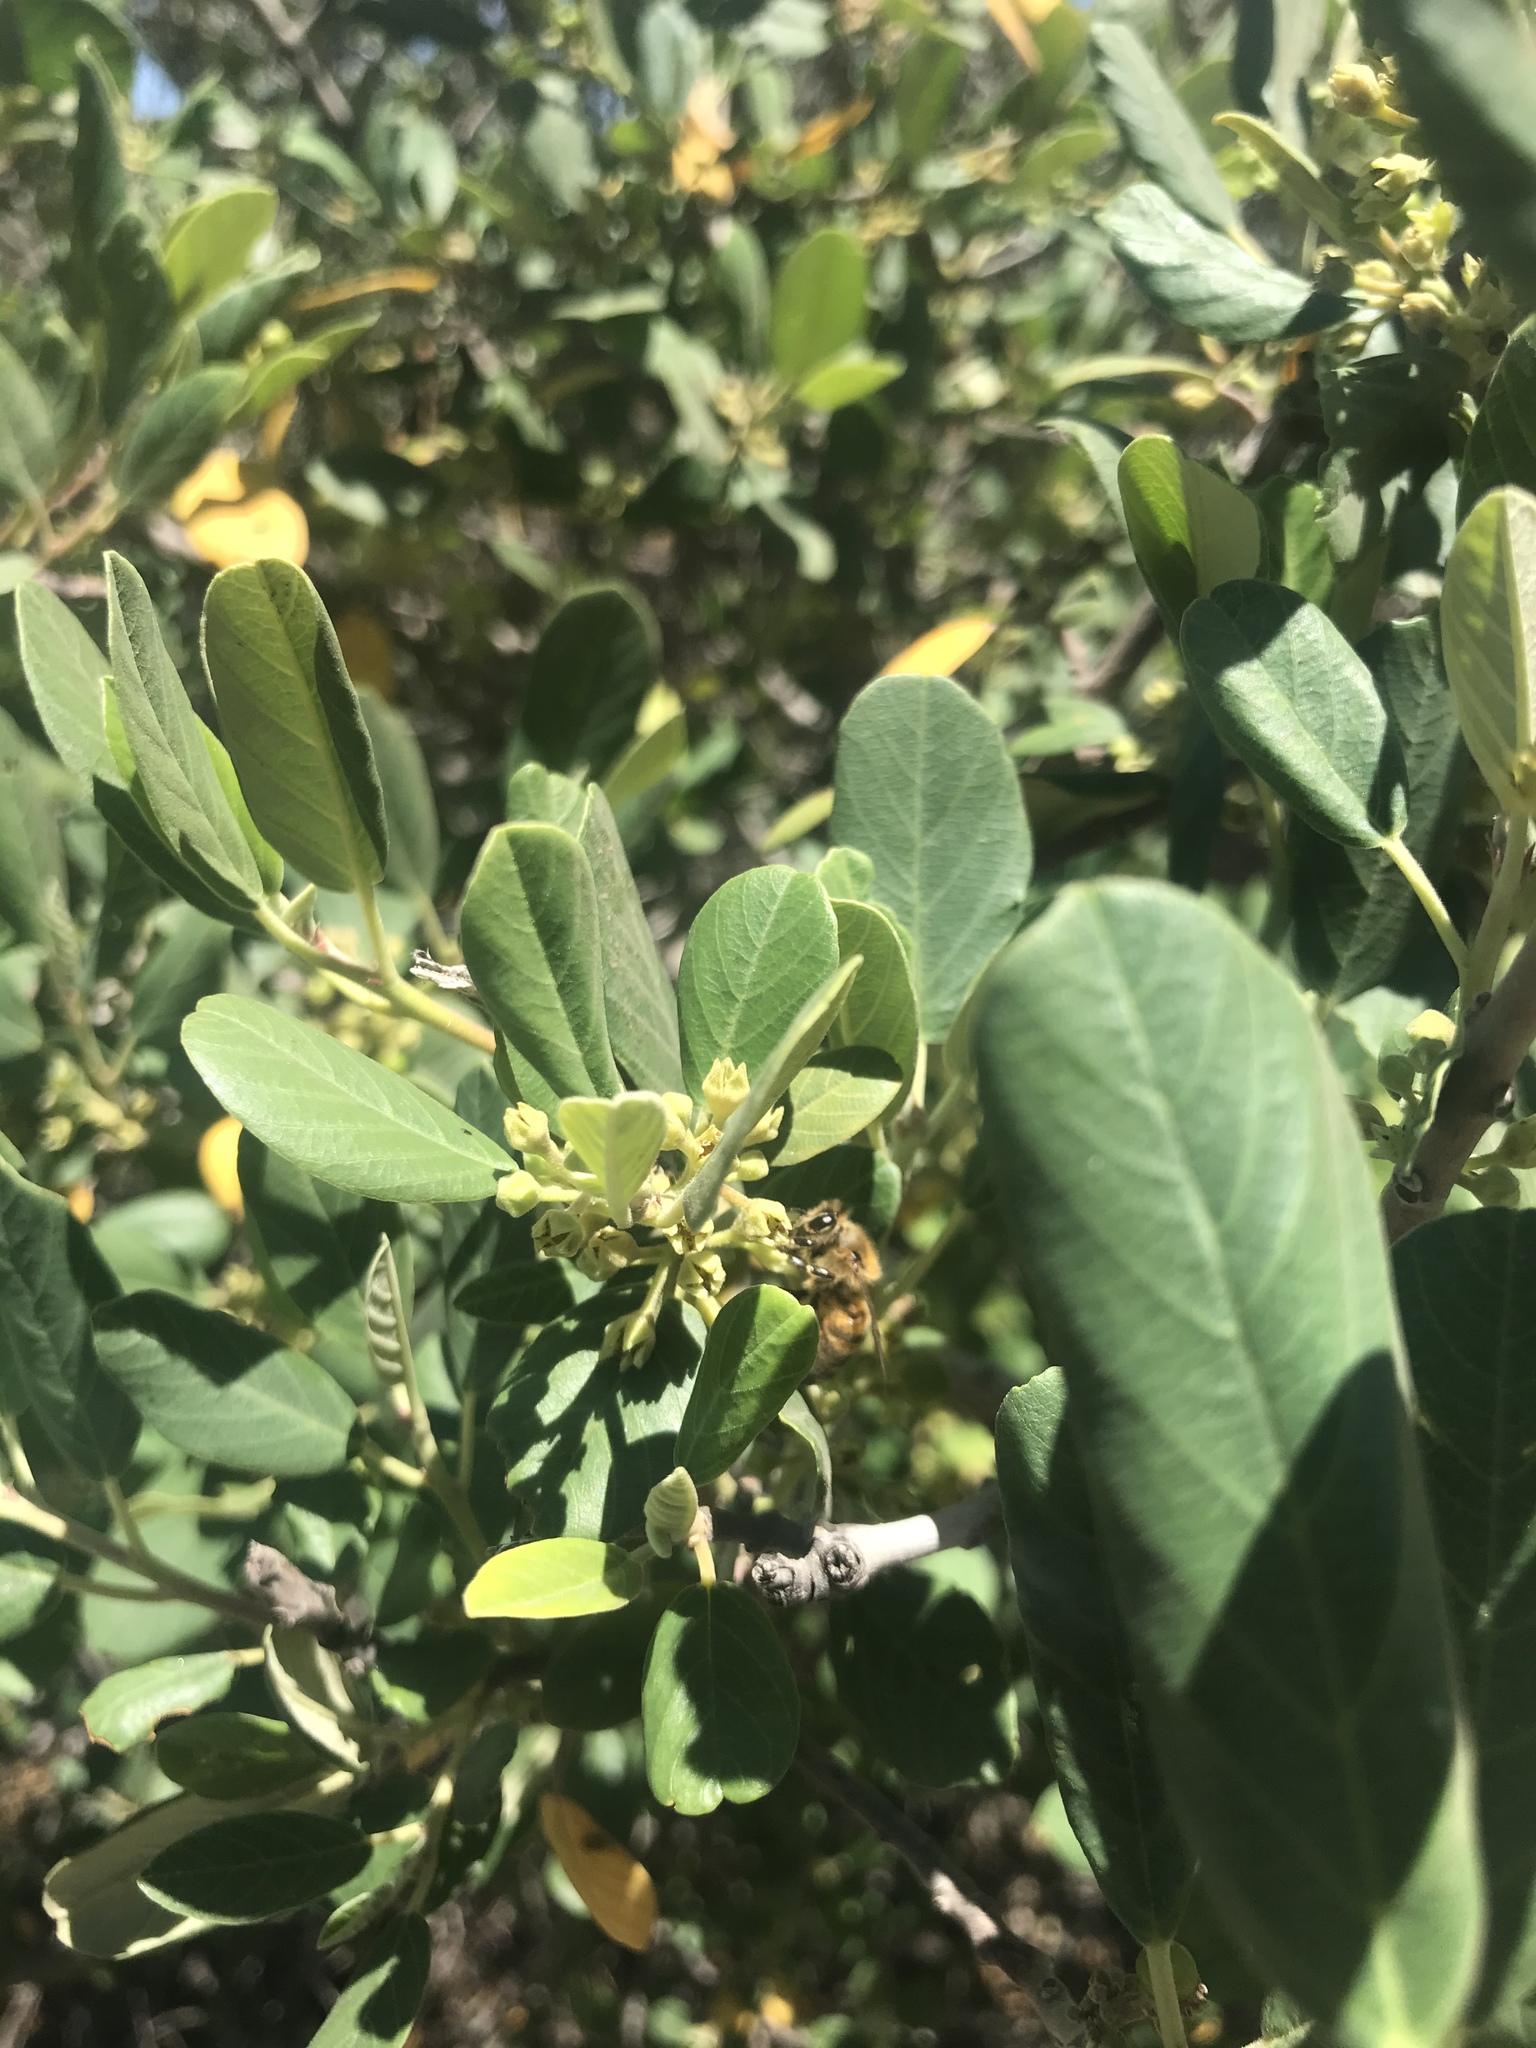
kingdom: Animalia
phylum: Arthropoda
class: Insecta
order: Hymenoptera
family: Apidae
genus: Apis
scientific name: Apis mellifera
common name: Honey bee
